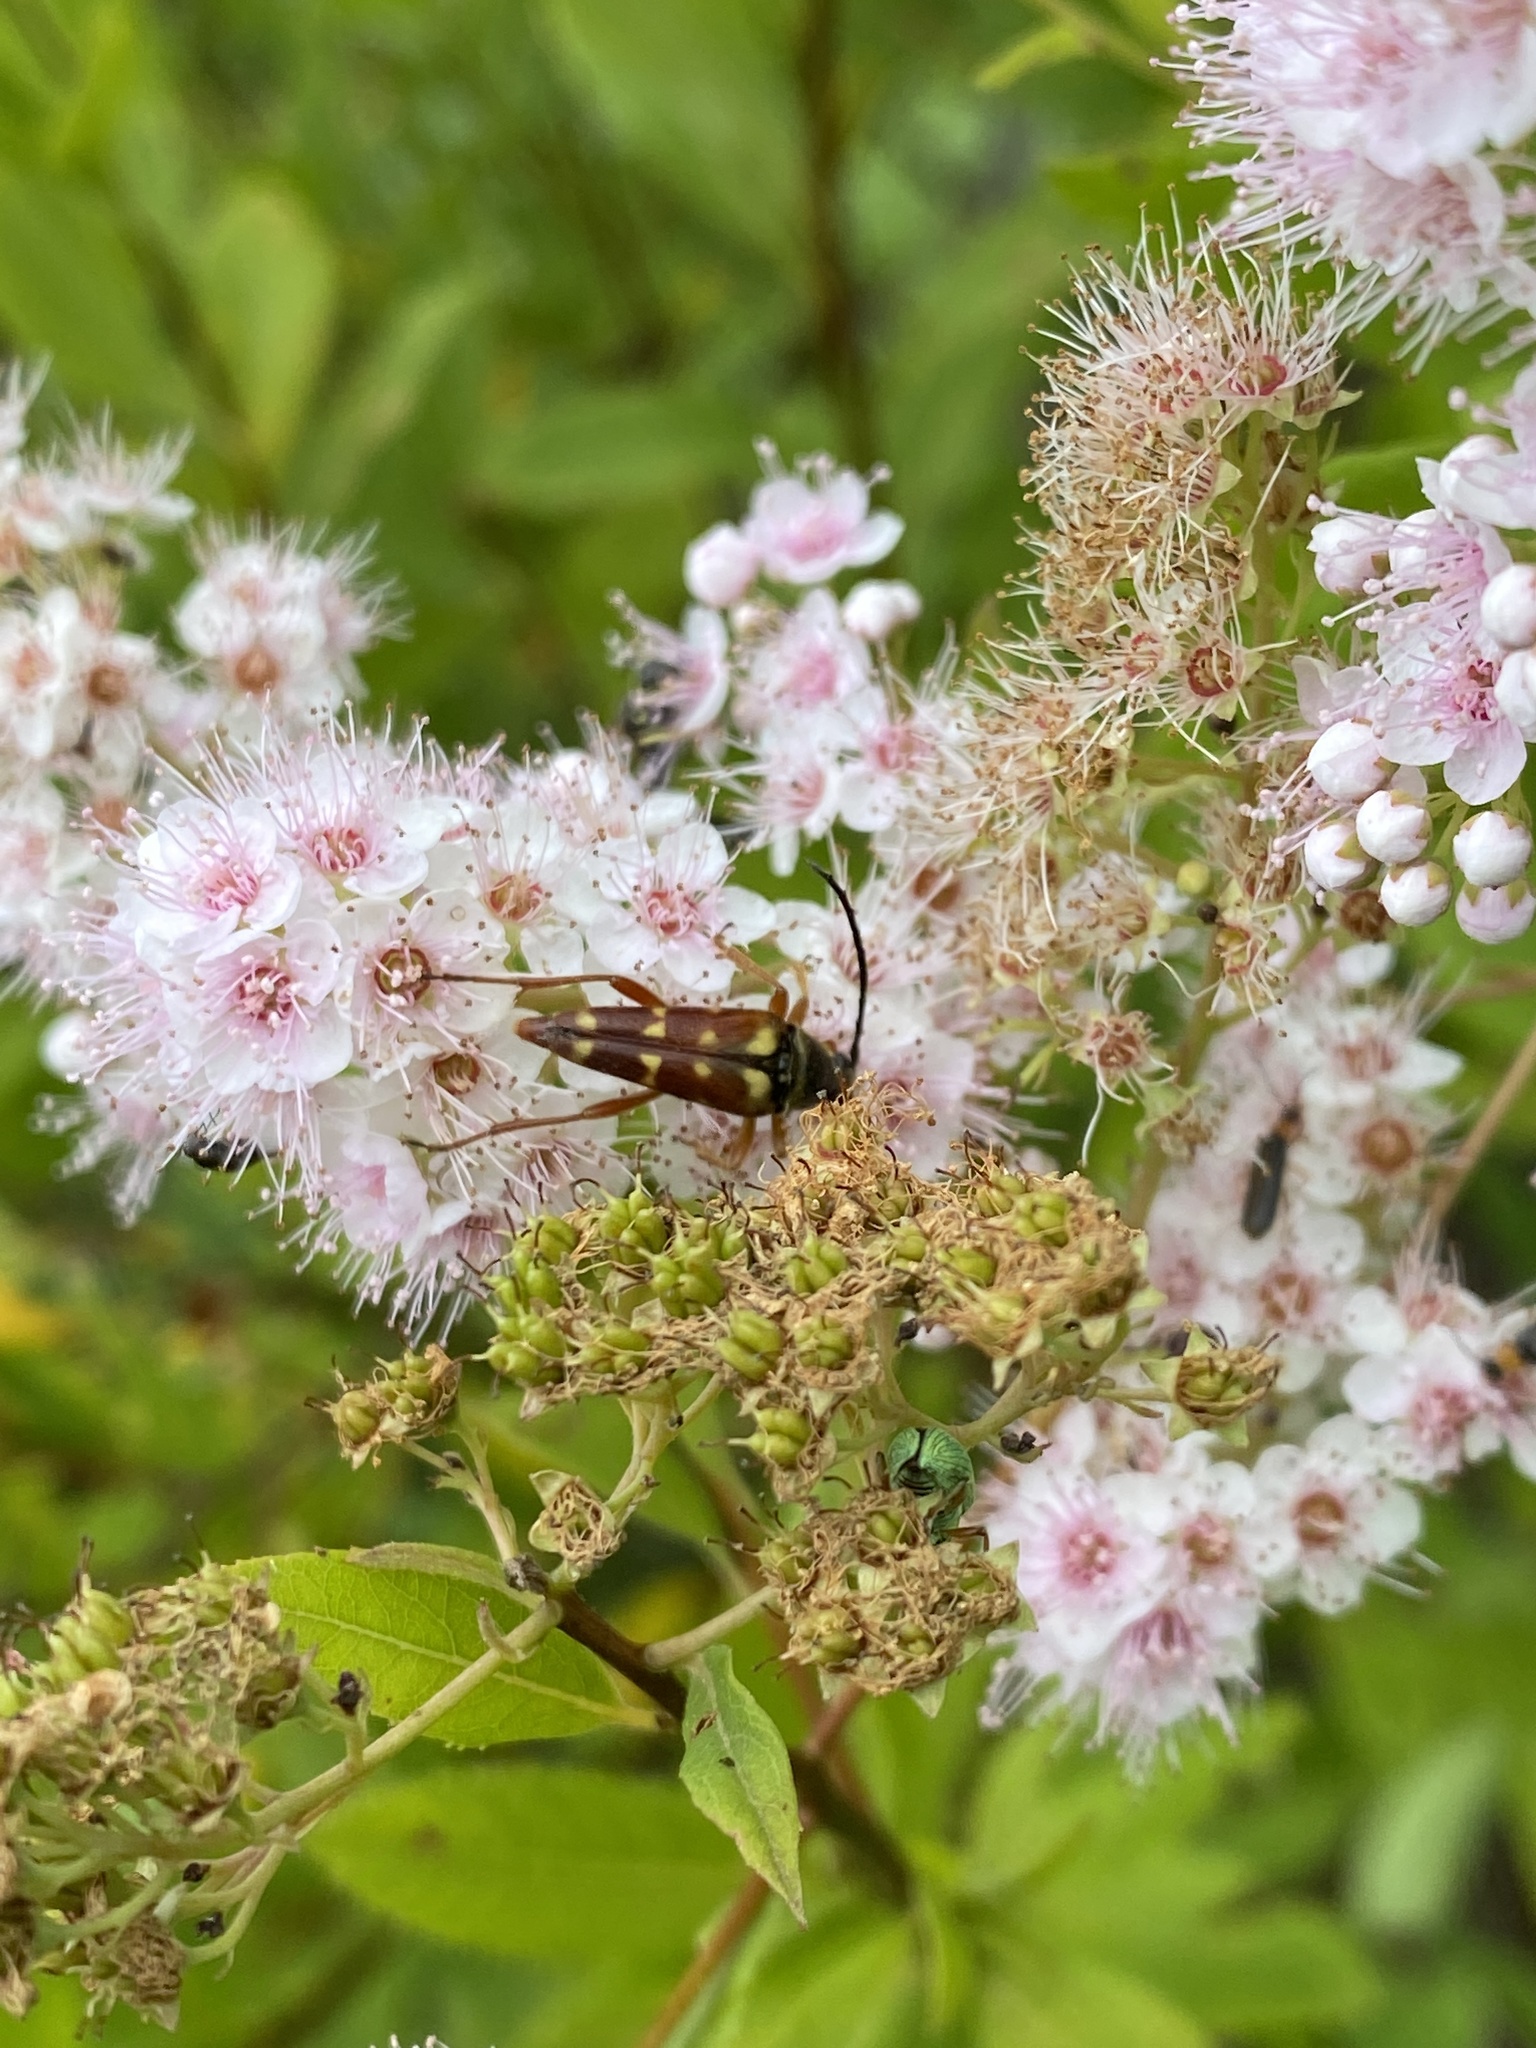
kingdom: Animalia
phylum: Arthropoda
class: Insecta
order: Coleoptera
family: Cerambycidae
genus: Typocerus
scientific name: Typocerus velutinus
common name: Banded longhorn beetle
